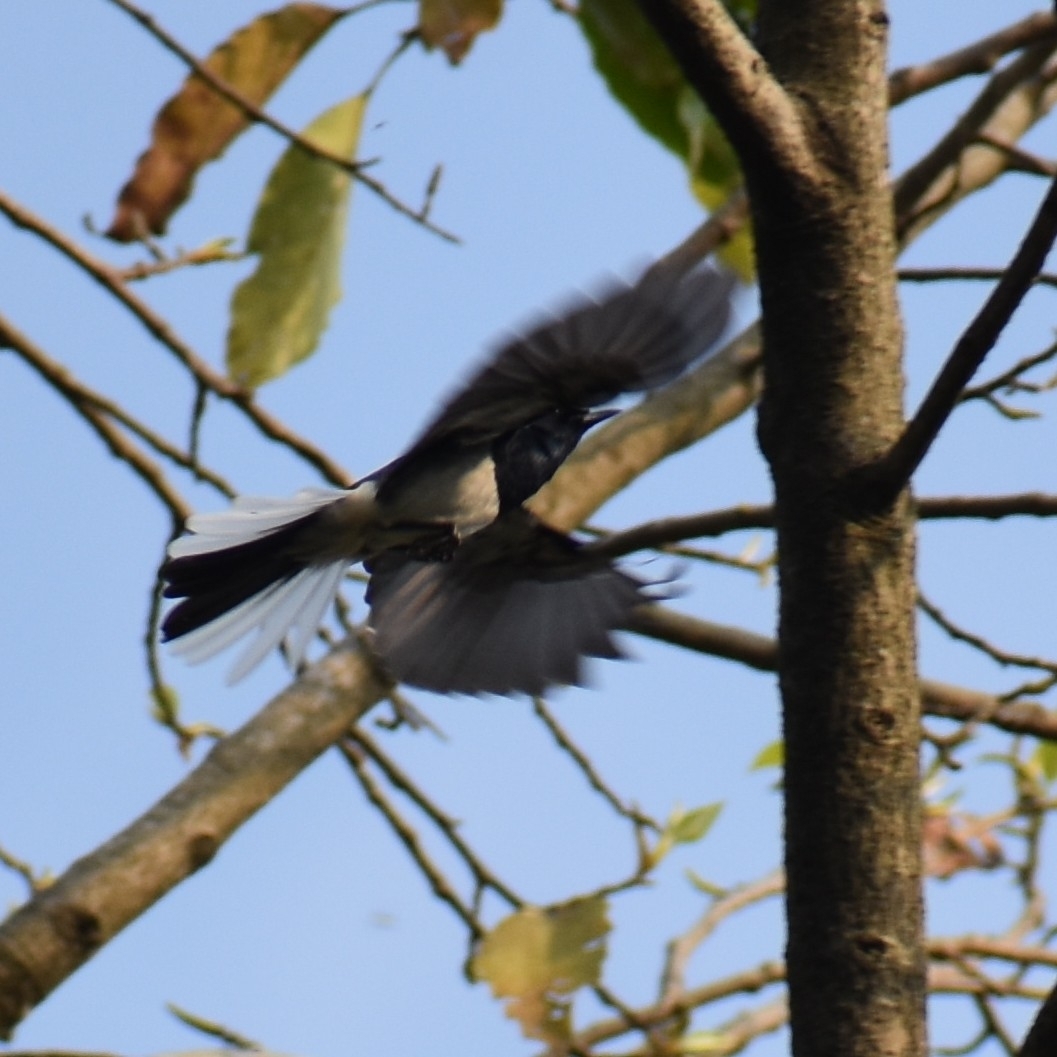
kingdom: Animalia
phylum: Chordata
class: Aves
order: Passeriformes
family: Muscicapidae
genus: Copsychus
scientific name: Copsychus saularis
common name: Oriental magpie-robin
